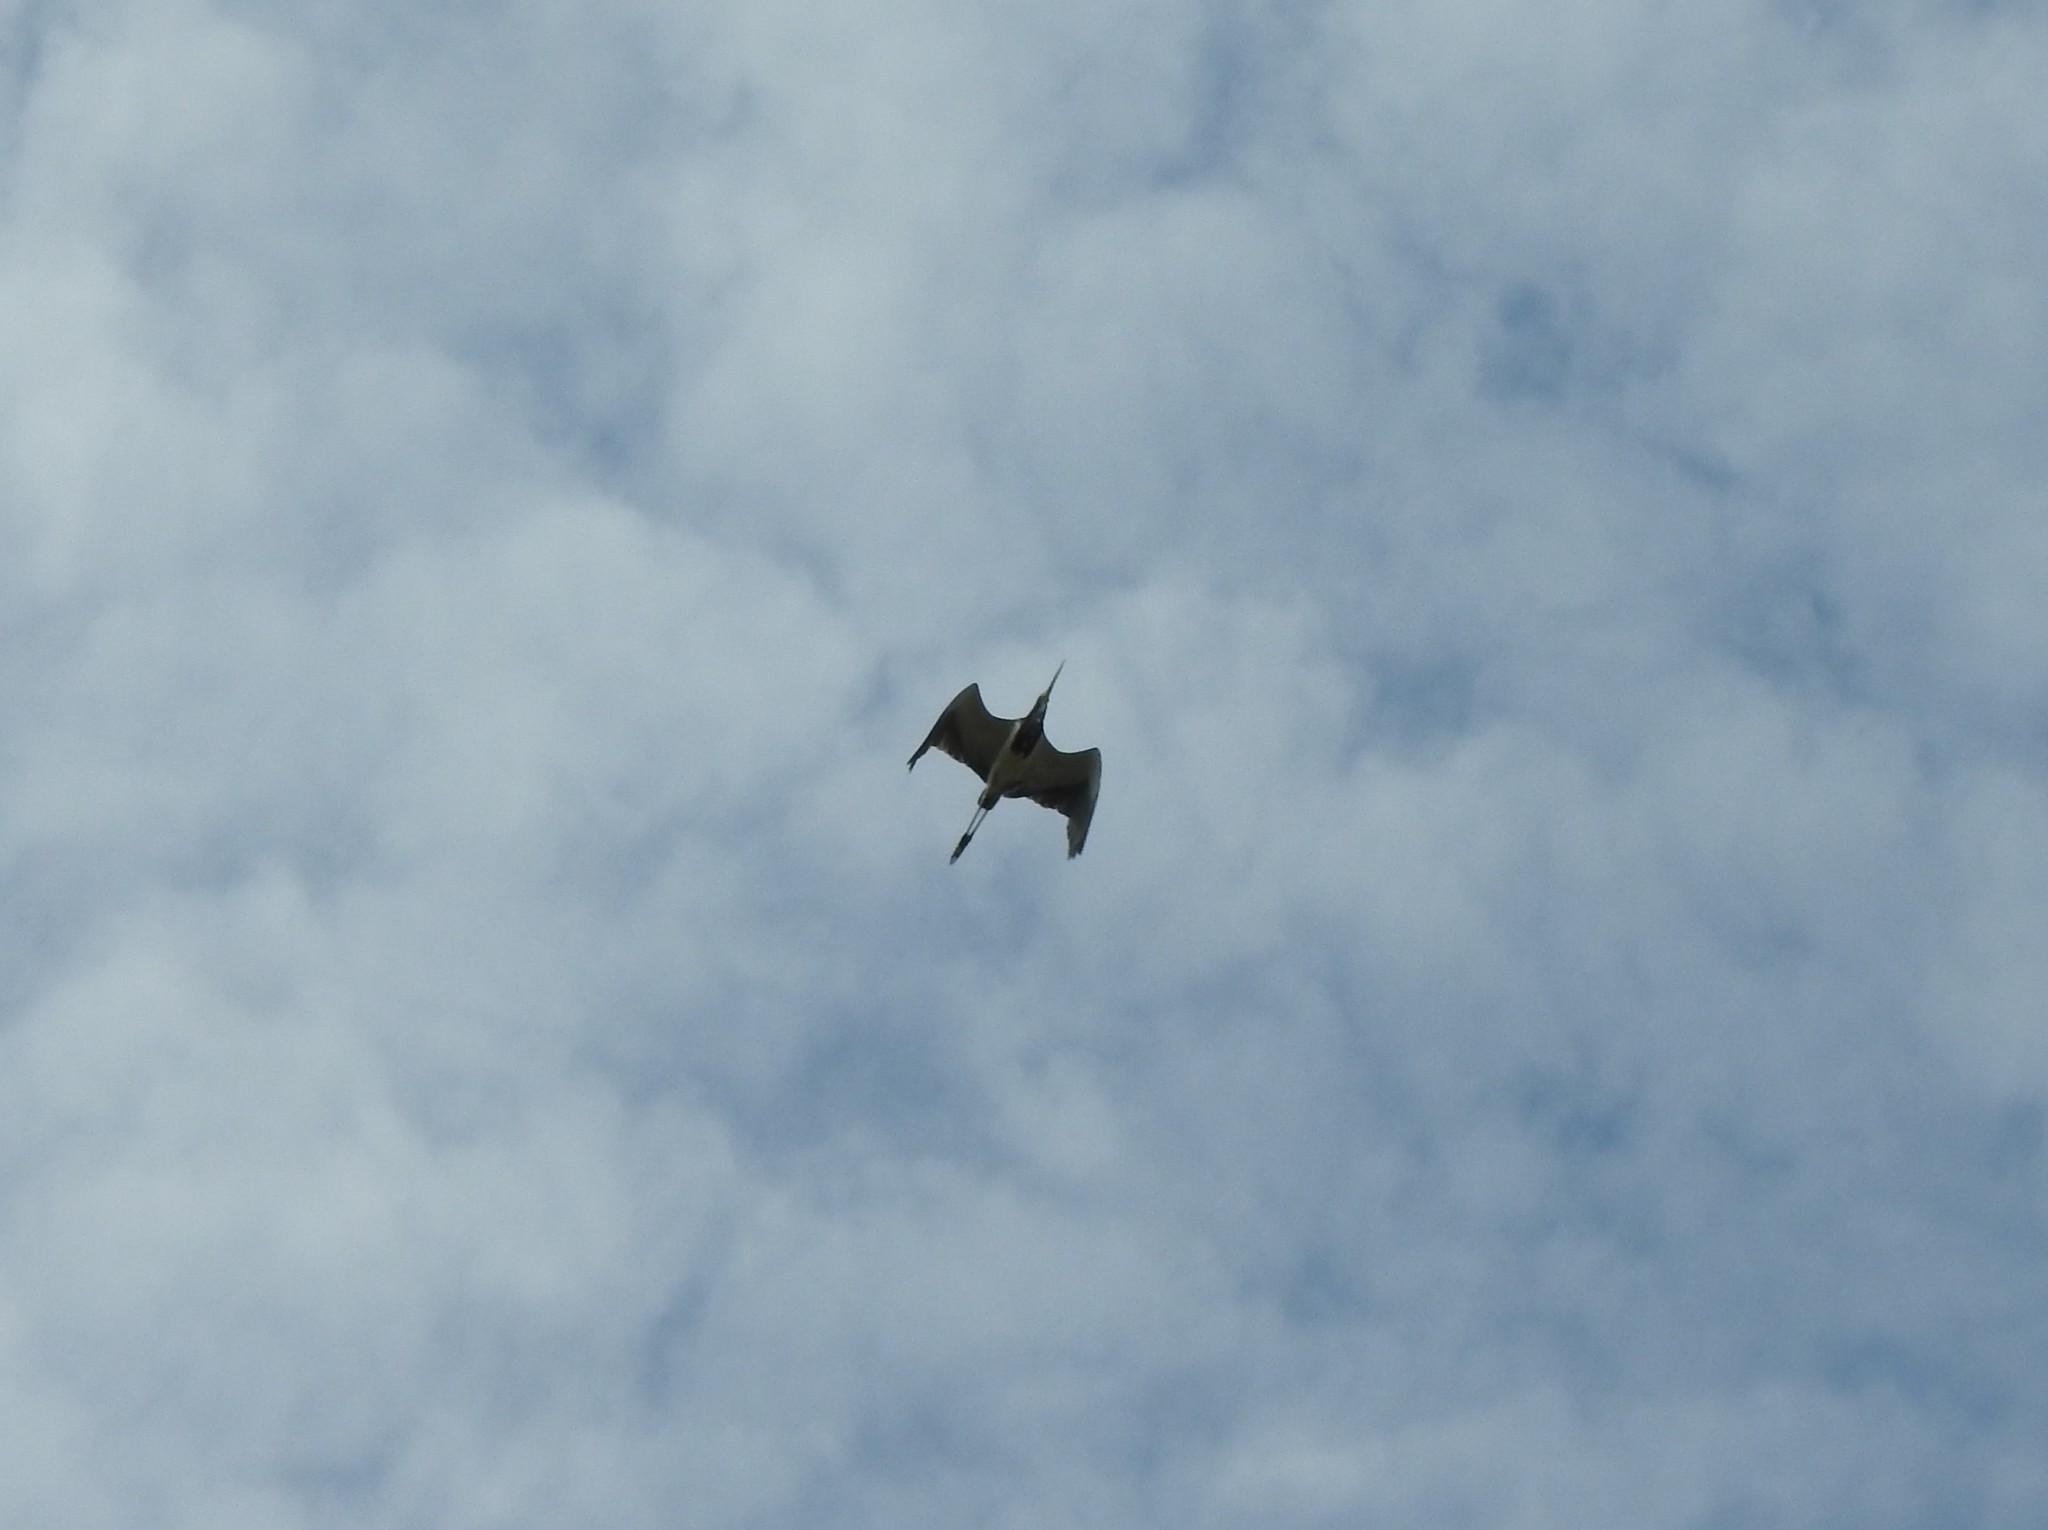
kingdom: Animalia
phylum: Chordata
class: Aves
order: Pelecaniformes
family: Ardeidae
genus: Egretta
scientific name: Egretta tricolor
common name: Tricolored heron
